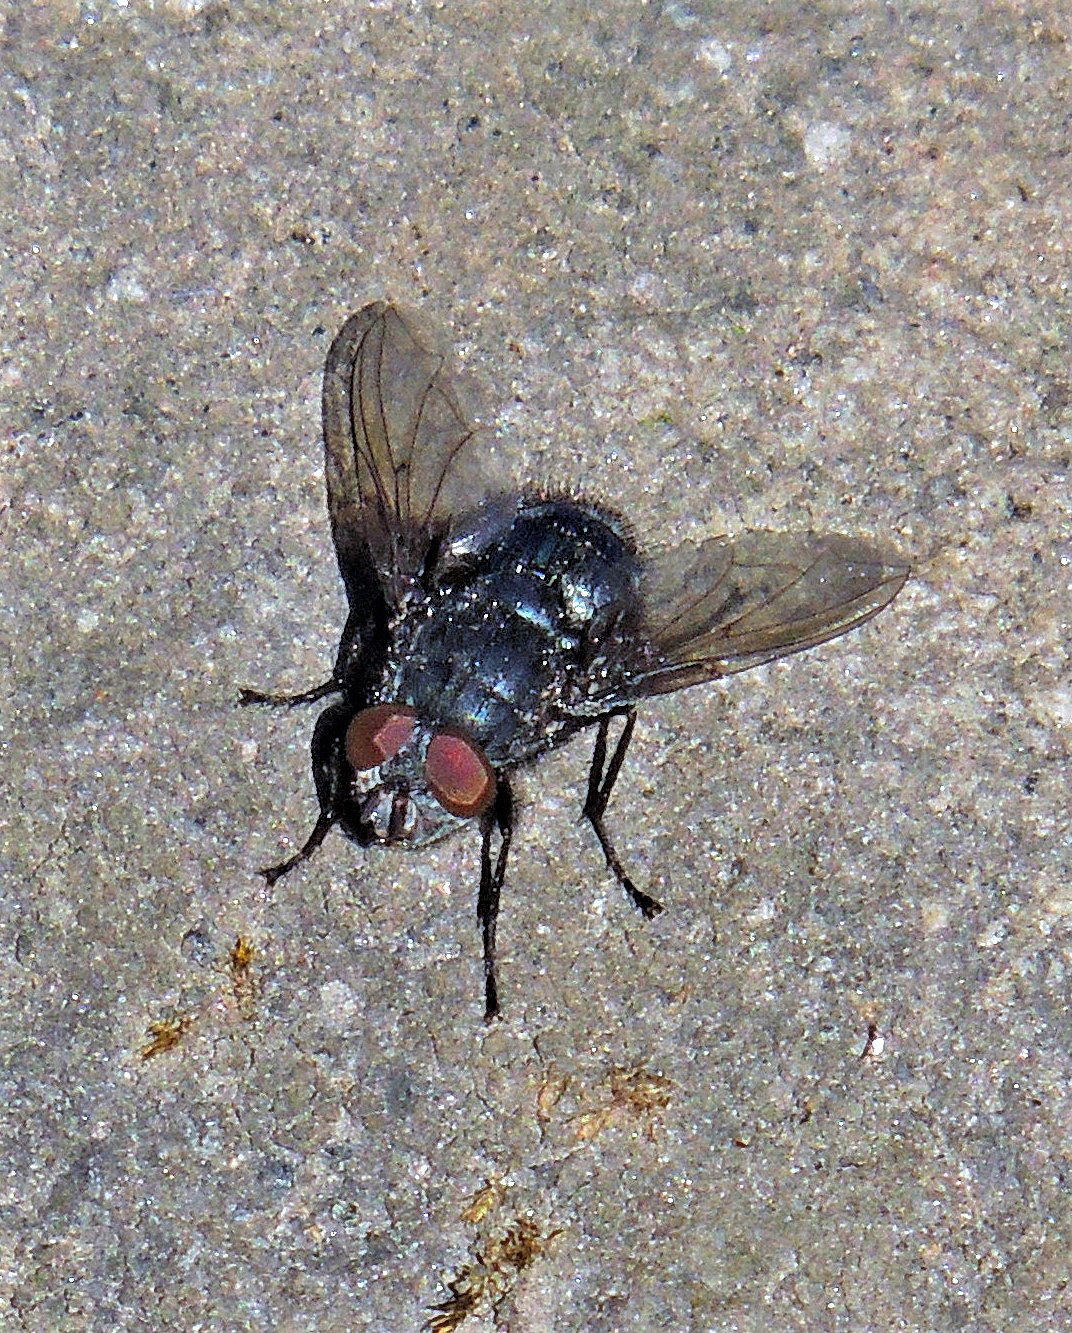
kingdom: Animalia
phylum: Arthropoda
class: Insecta
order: Diptera
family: Calliphoridae
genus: Calliphora
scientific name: Calliphora nigribasis
